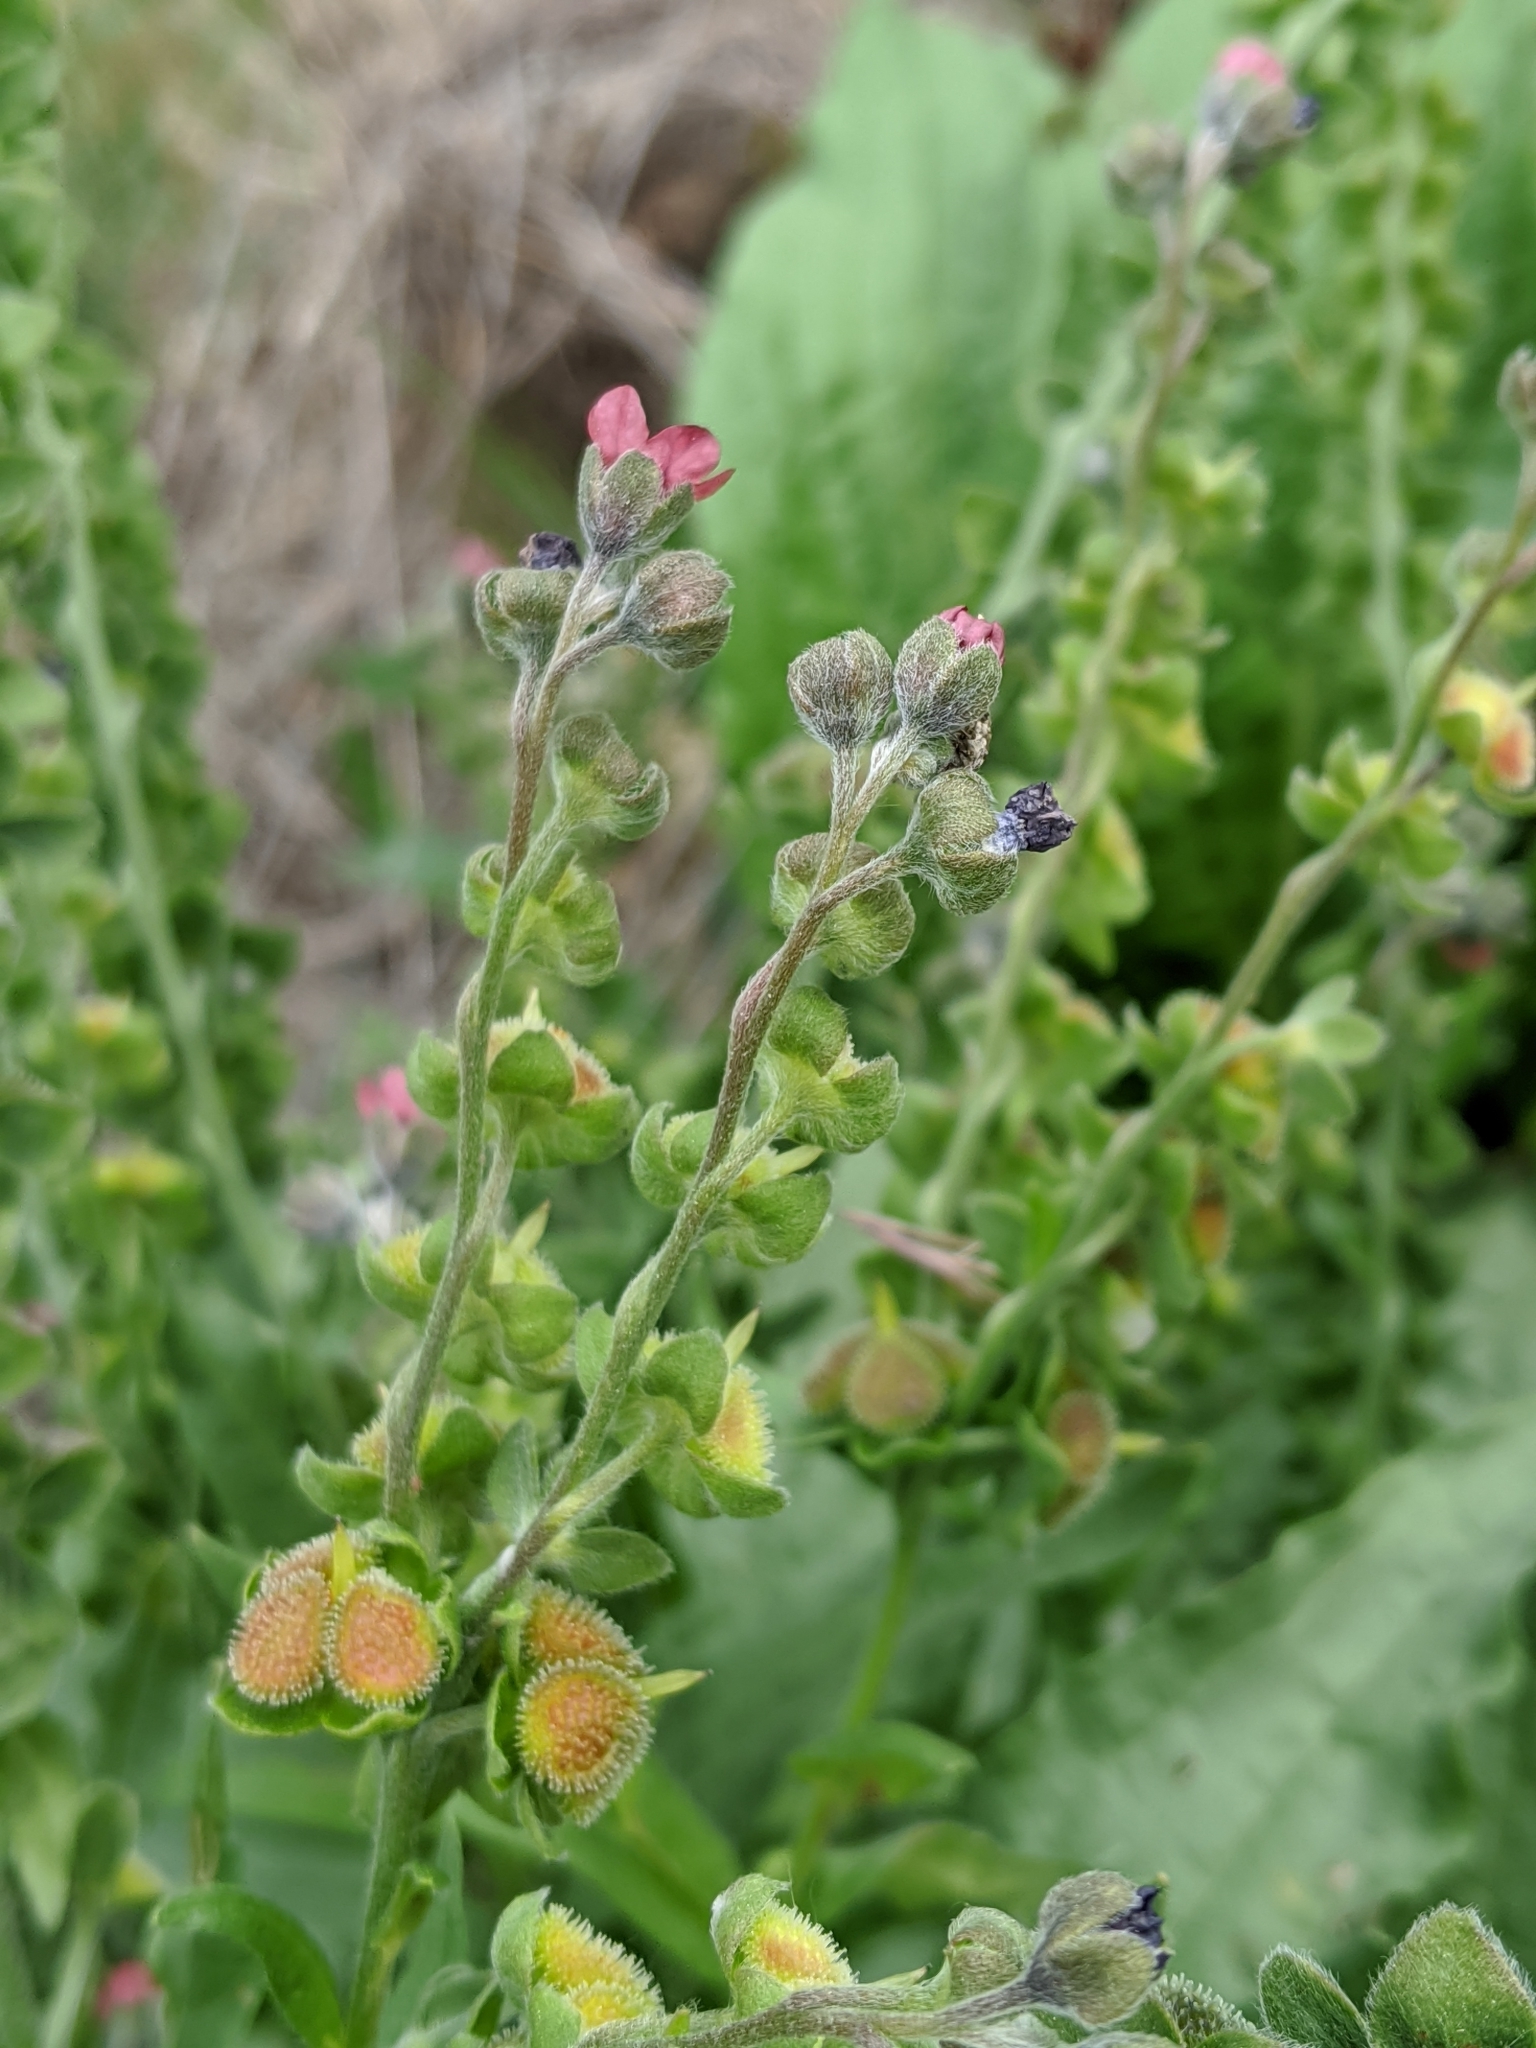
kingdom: Plantae
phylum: Tracheophyta
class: Magnoliopsida
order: Boraginales
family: Boraginaceae
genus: Cynoglossum
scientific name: Cynoglossum officinale
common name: Hound's-tongue
